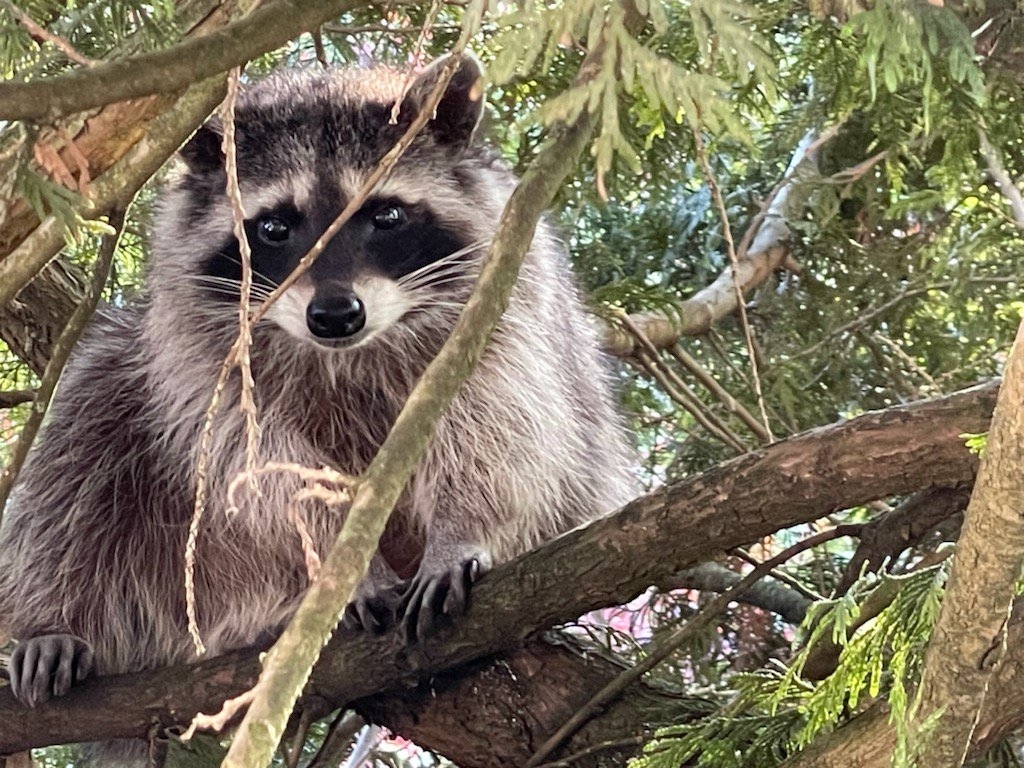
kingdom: Animalia
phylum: Chordata
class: Mammalia
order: Carnivora
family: Procyonidae
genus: Procyon
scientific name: Procyon lotor
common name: Raccoon
